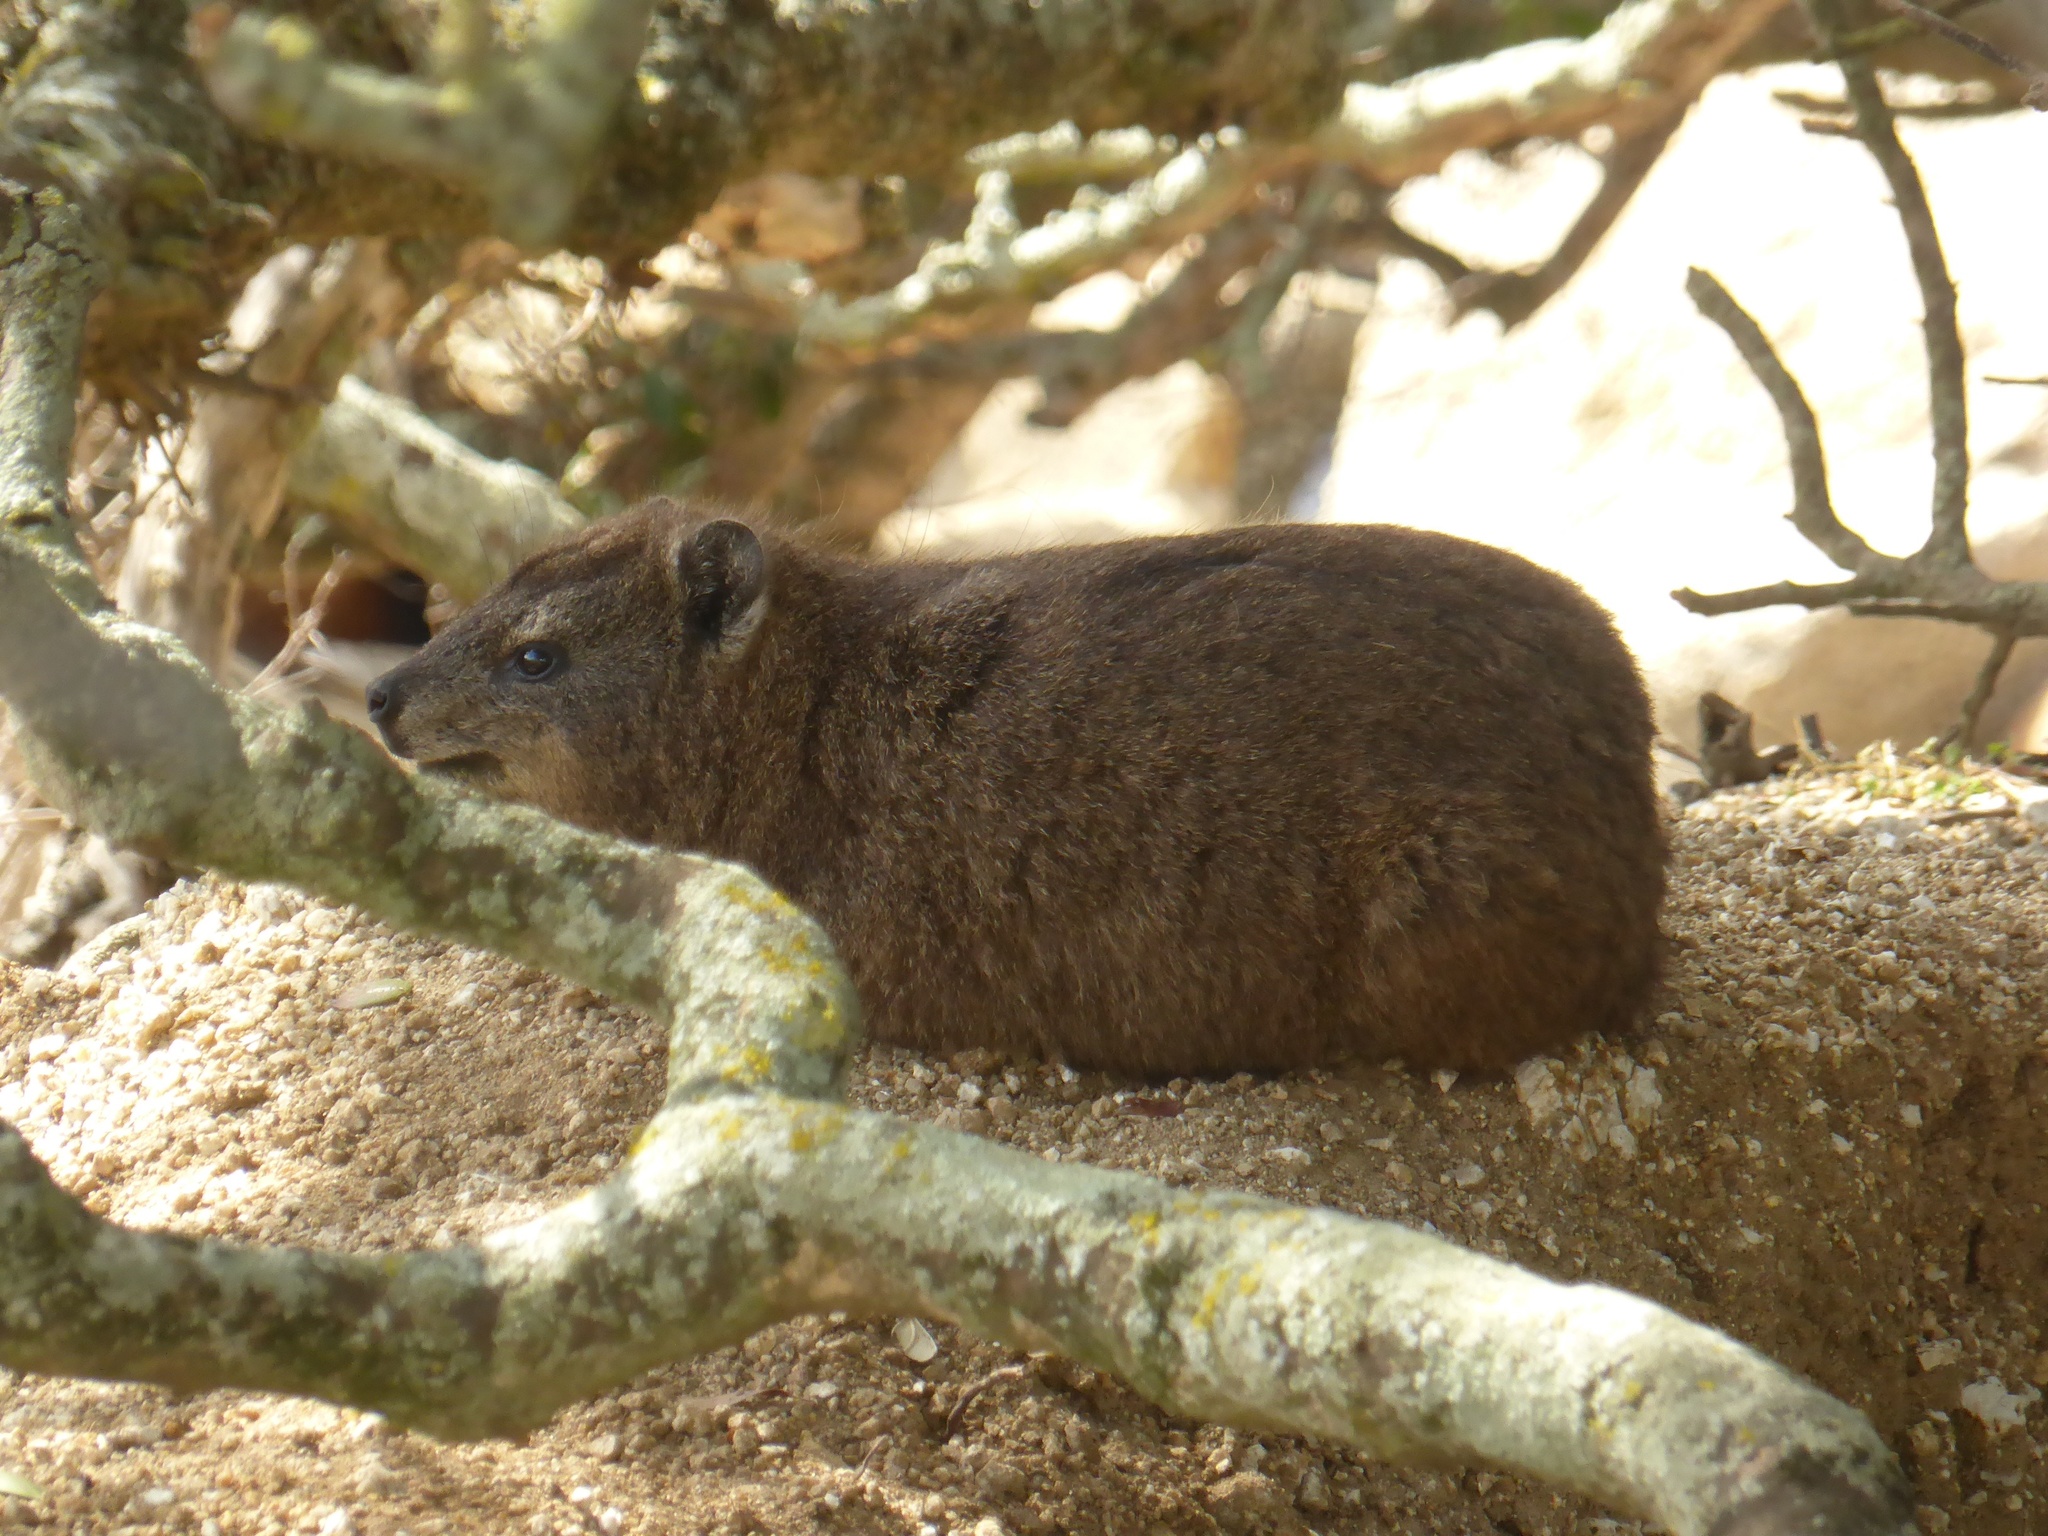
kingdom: Animalia
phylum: Chordata
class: Mammalia
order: Hyracoidea
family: Procaviidae
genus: Procavia
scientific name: Procavia capensis
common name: Rock hyrax
